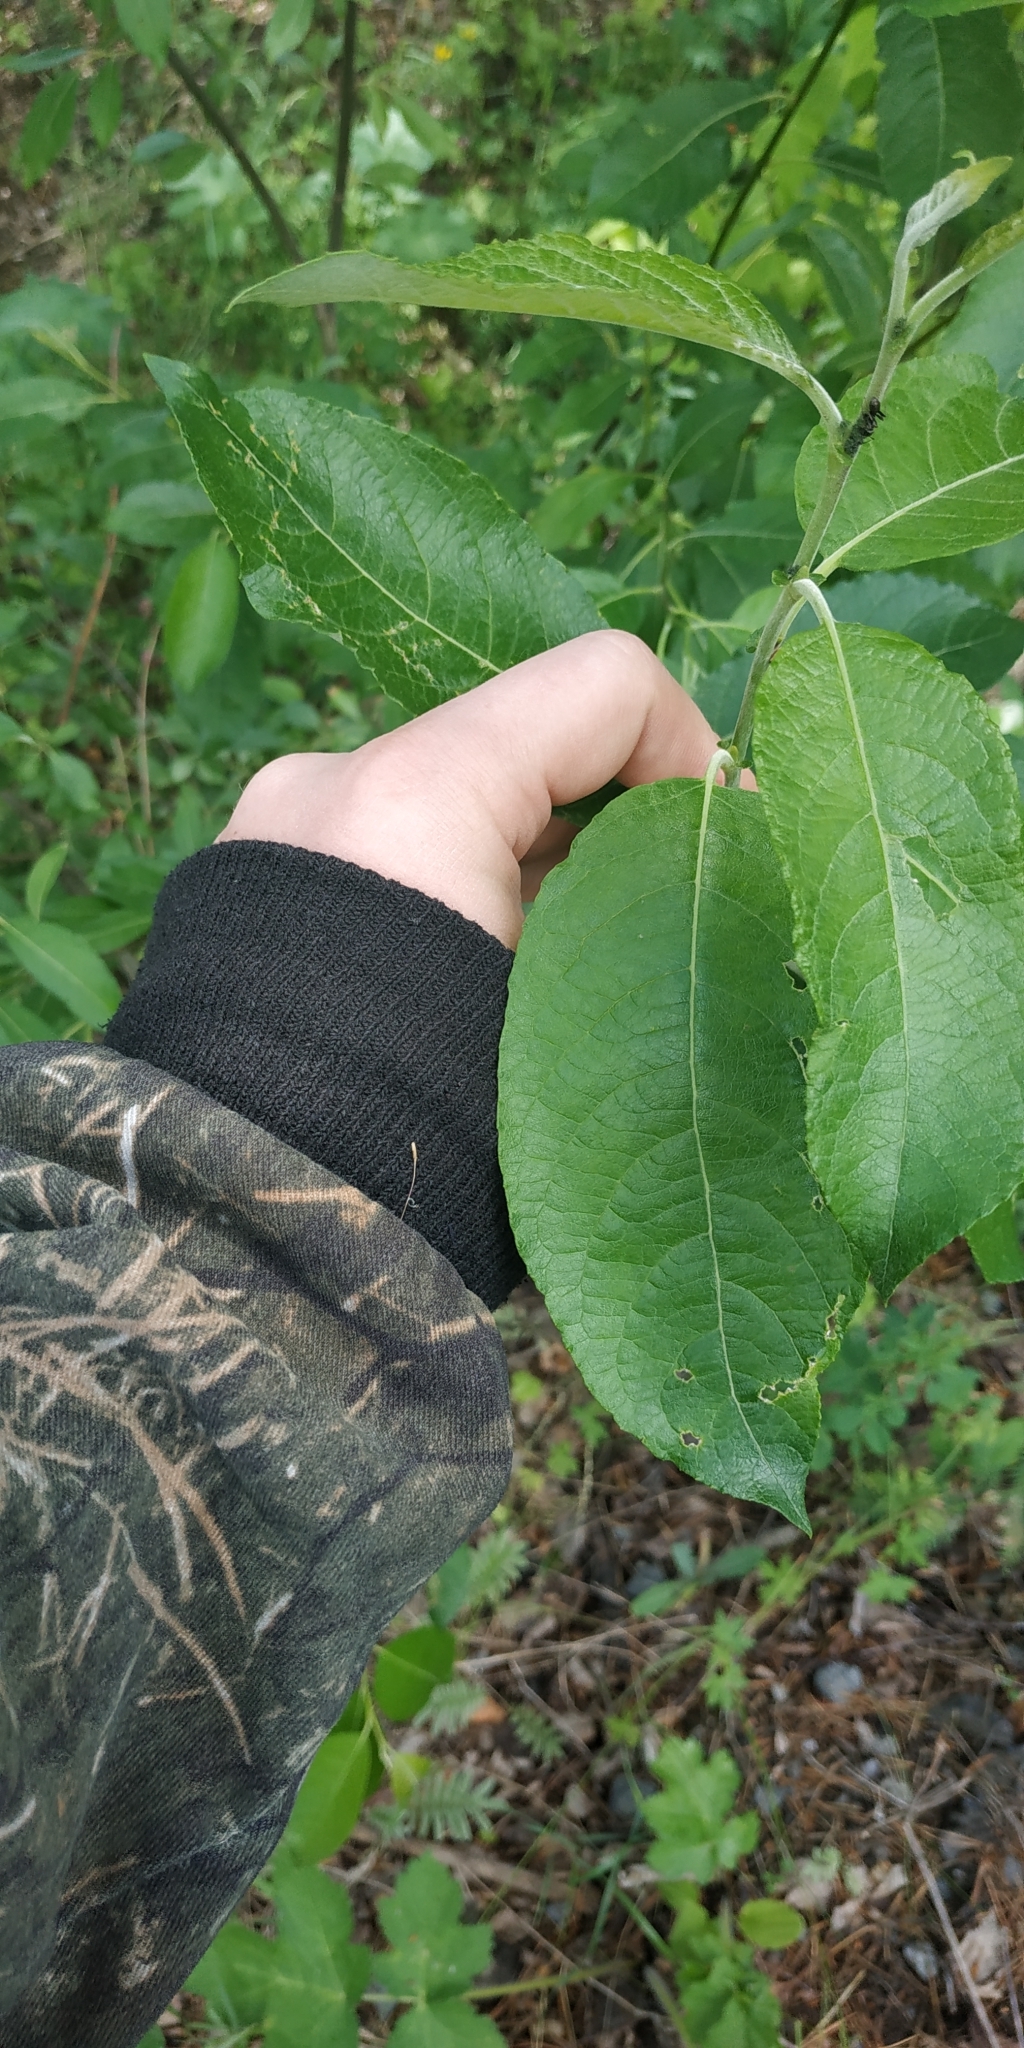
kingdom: Plantae
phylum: Tracheophyta
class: Magnoliopsida
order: Malpighiales
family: Salicaceae
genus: Salix
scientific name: Salix caprea
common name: Goat willow
